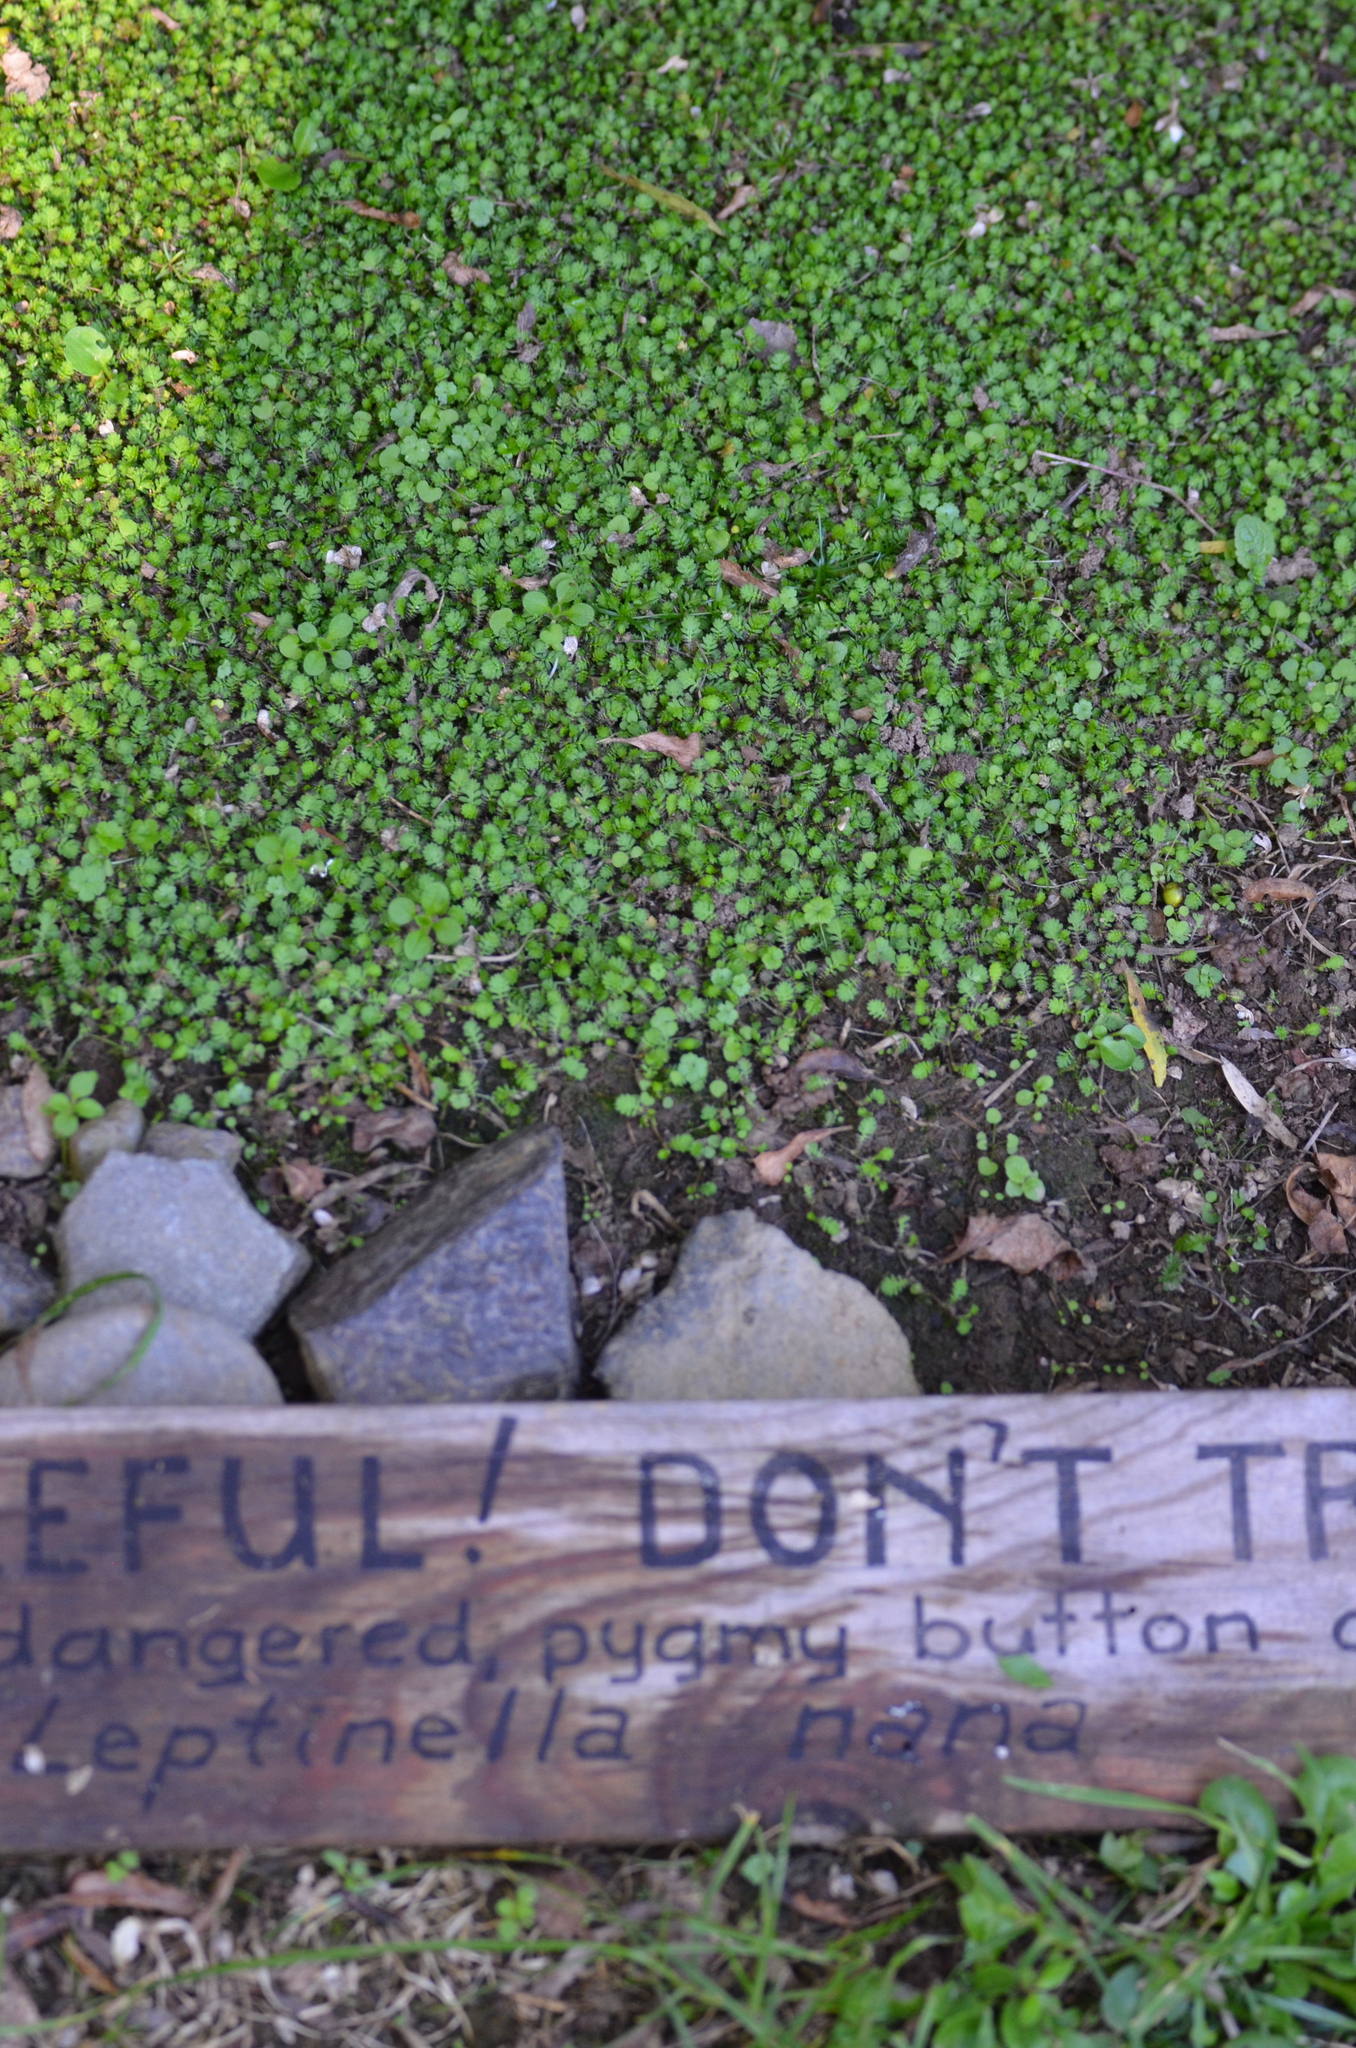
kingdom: Plantae
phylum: Tracheophyta
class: Magnoliopsida
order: Asterales
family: Asteraceae
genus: Leptinella
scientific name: Leptinella nana
